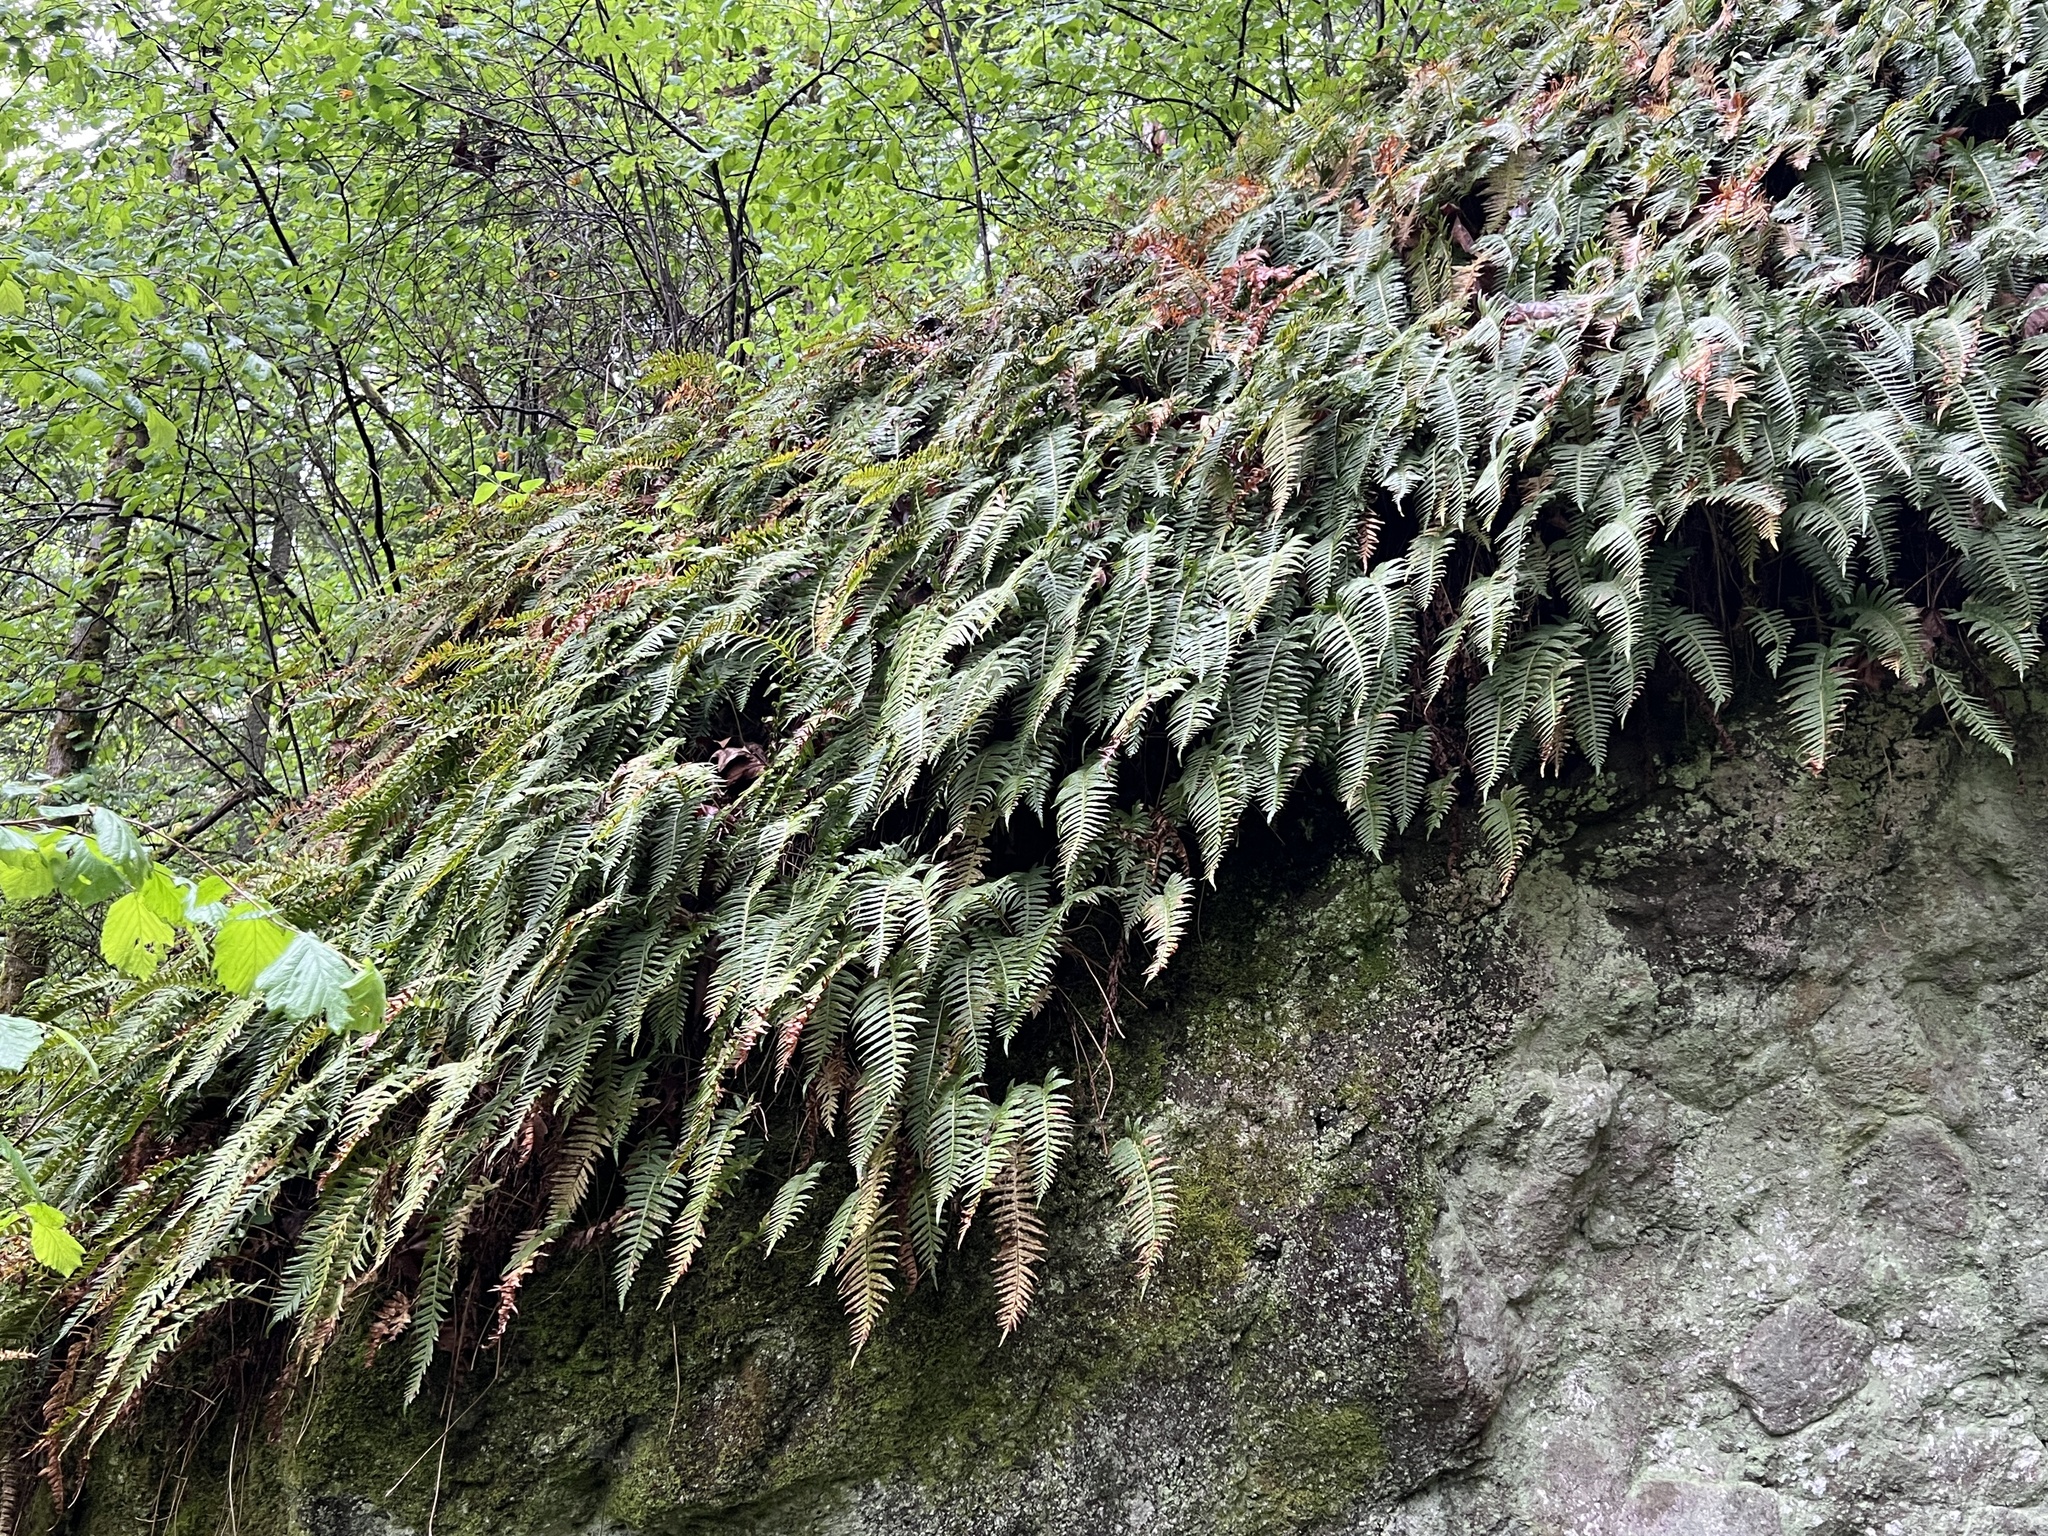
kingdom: Plantae
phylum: Tracheophyta
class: Polypodiopsida
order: Polypodiales
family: Polypodiaceae
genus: Polypodium
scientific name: Polypodium glycyrrhiza
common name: Licorice fern
